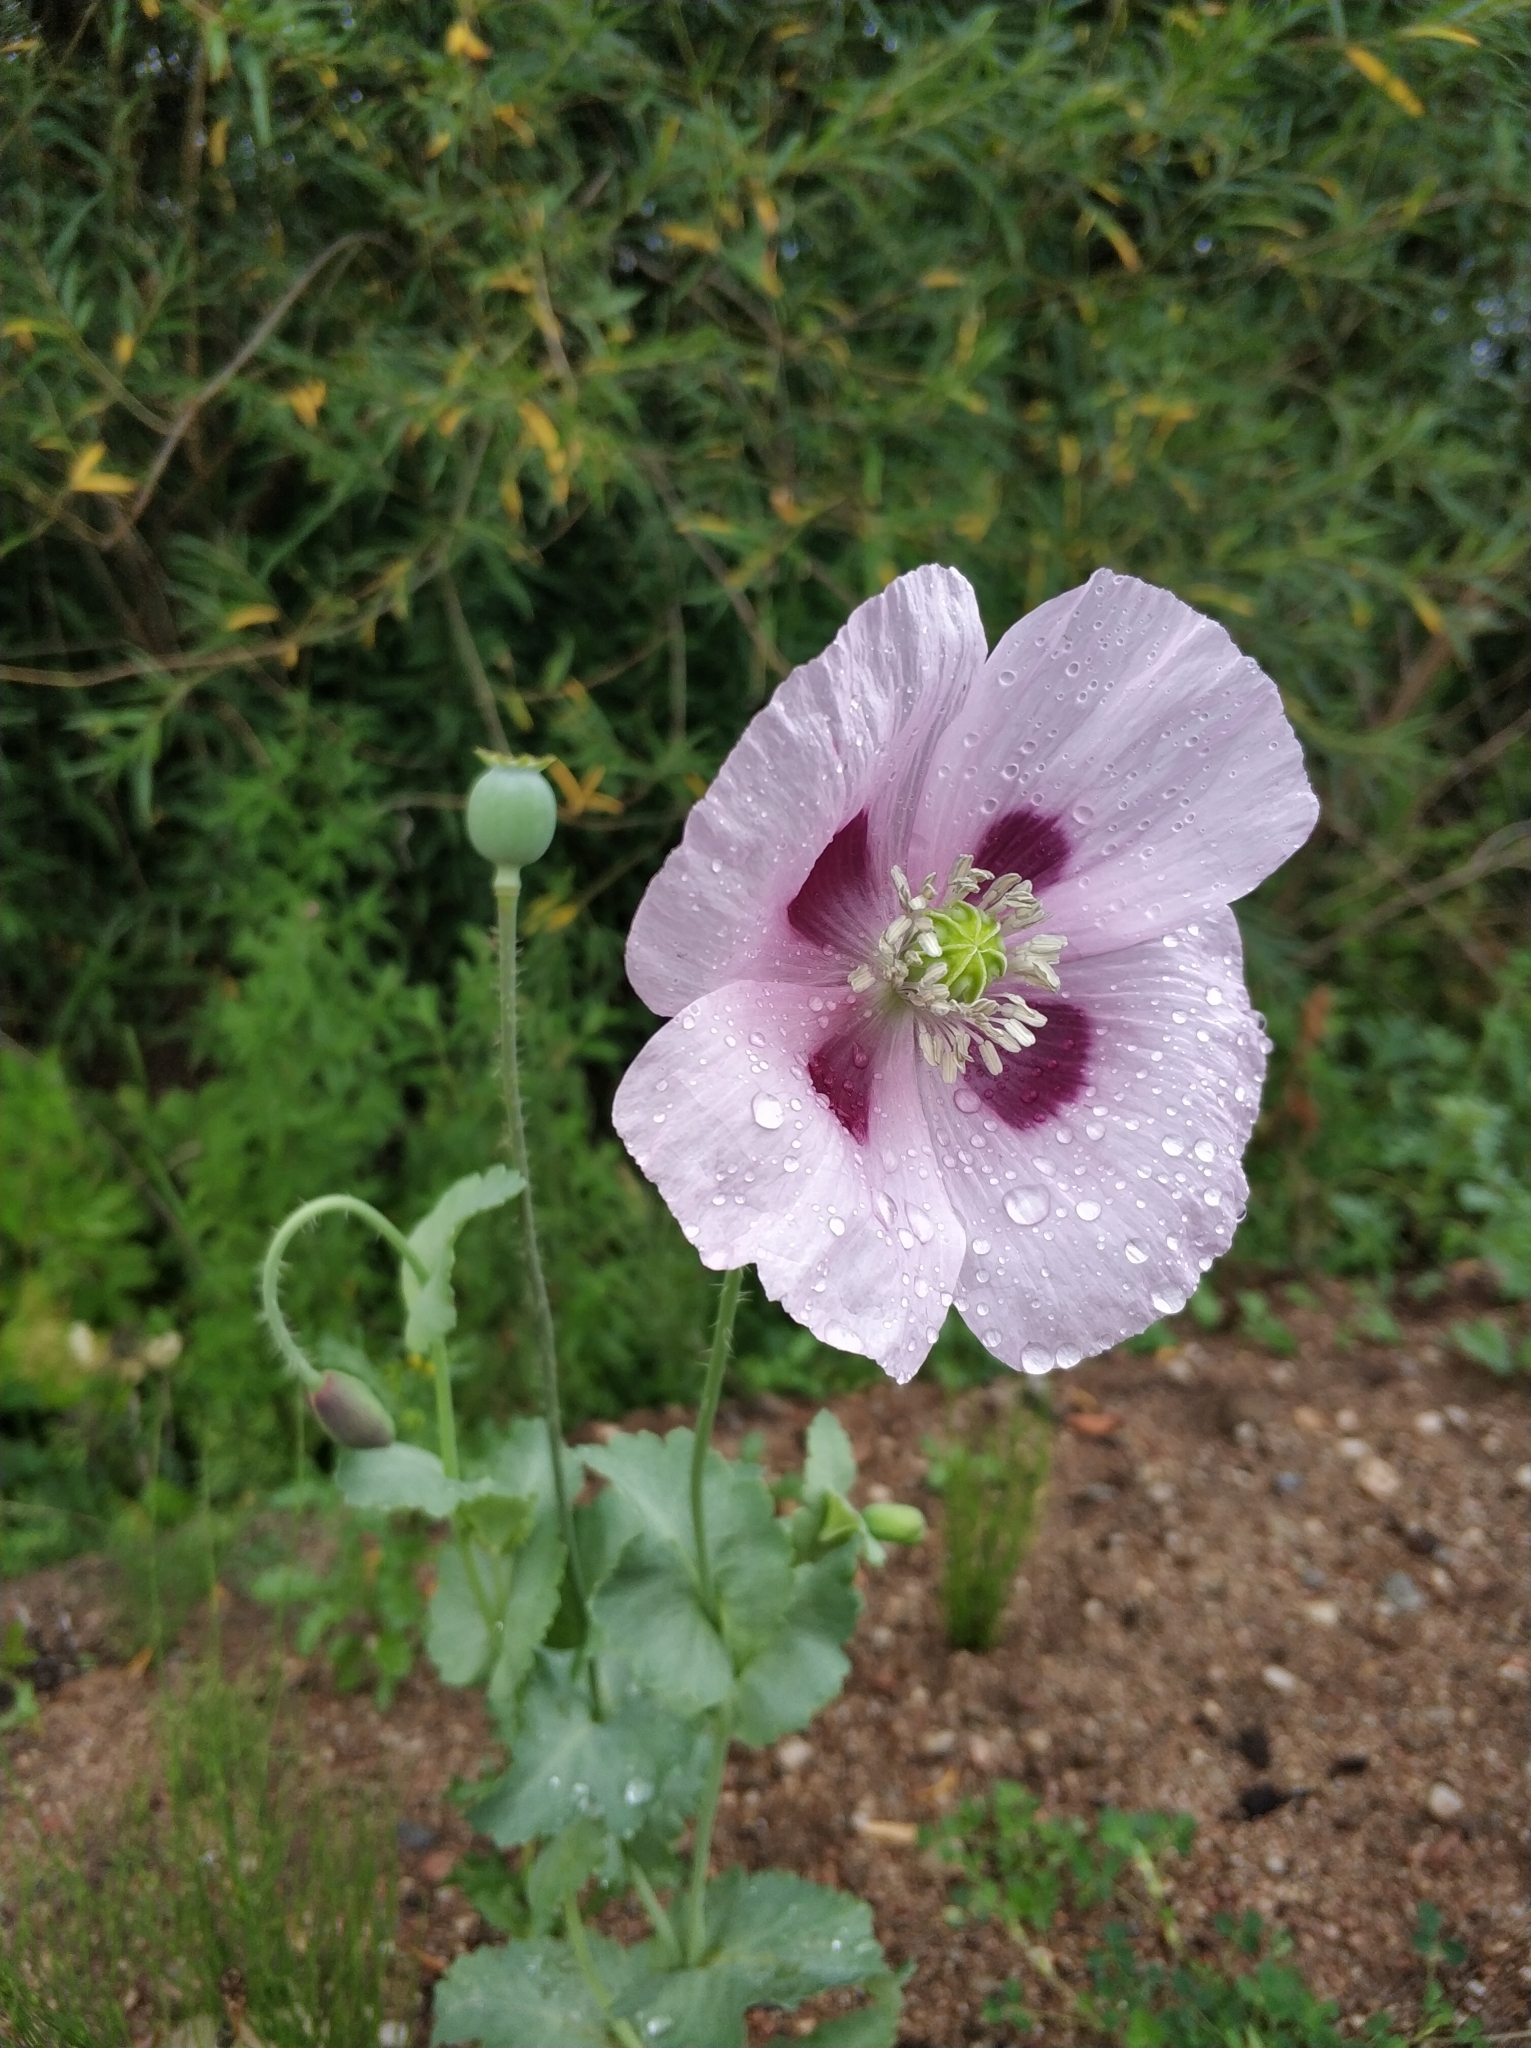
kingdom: Plantae
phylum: Tracheophyta
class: Magnoliopsida
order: Ranunculales
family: Papaveraceae
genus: Papaver
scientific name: Papaver somniferum
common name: Opium poppy
